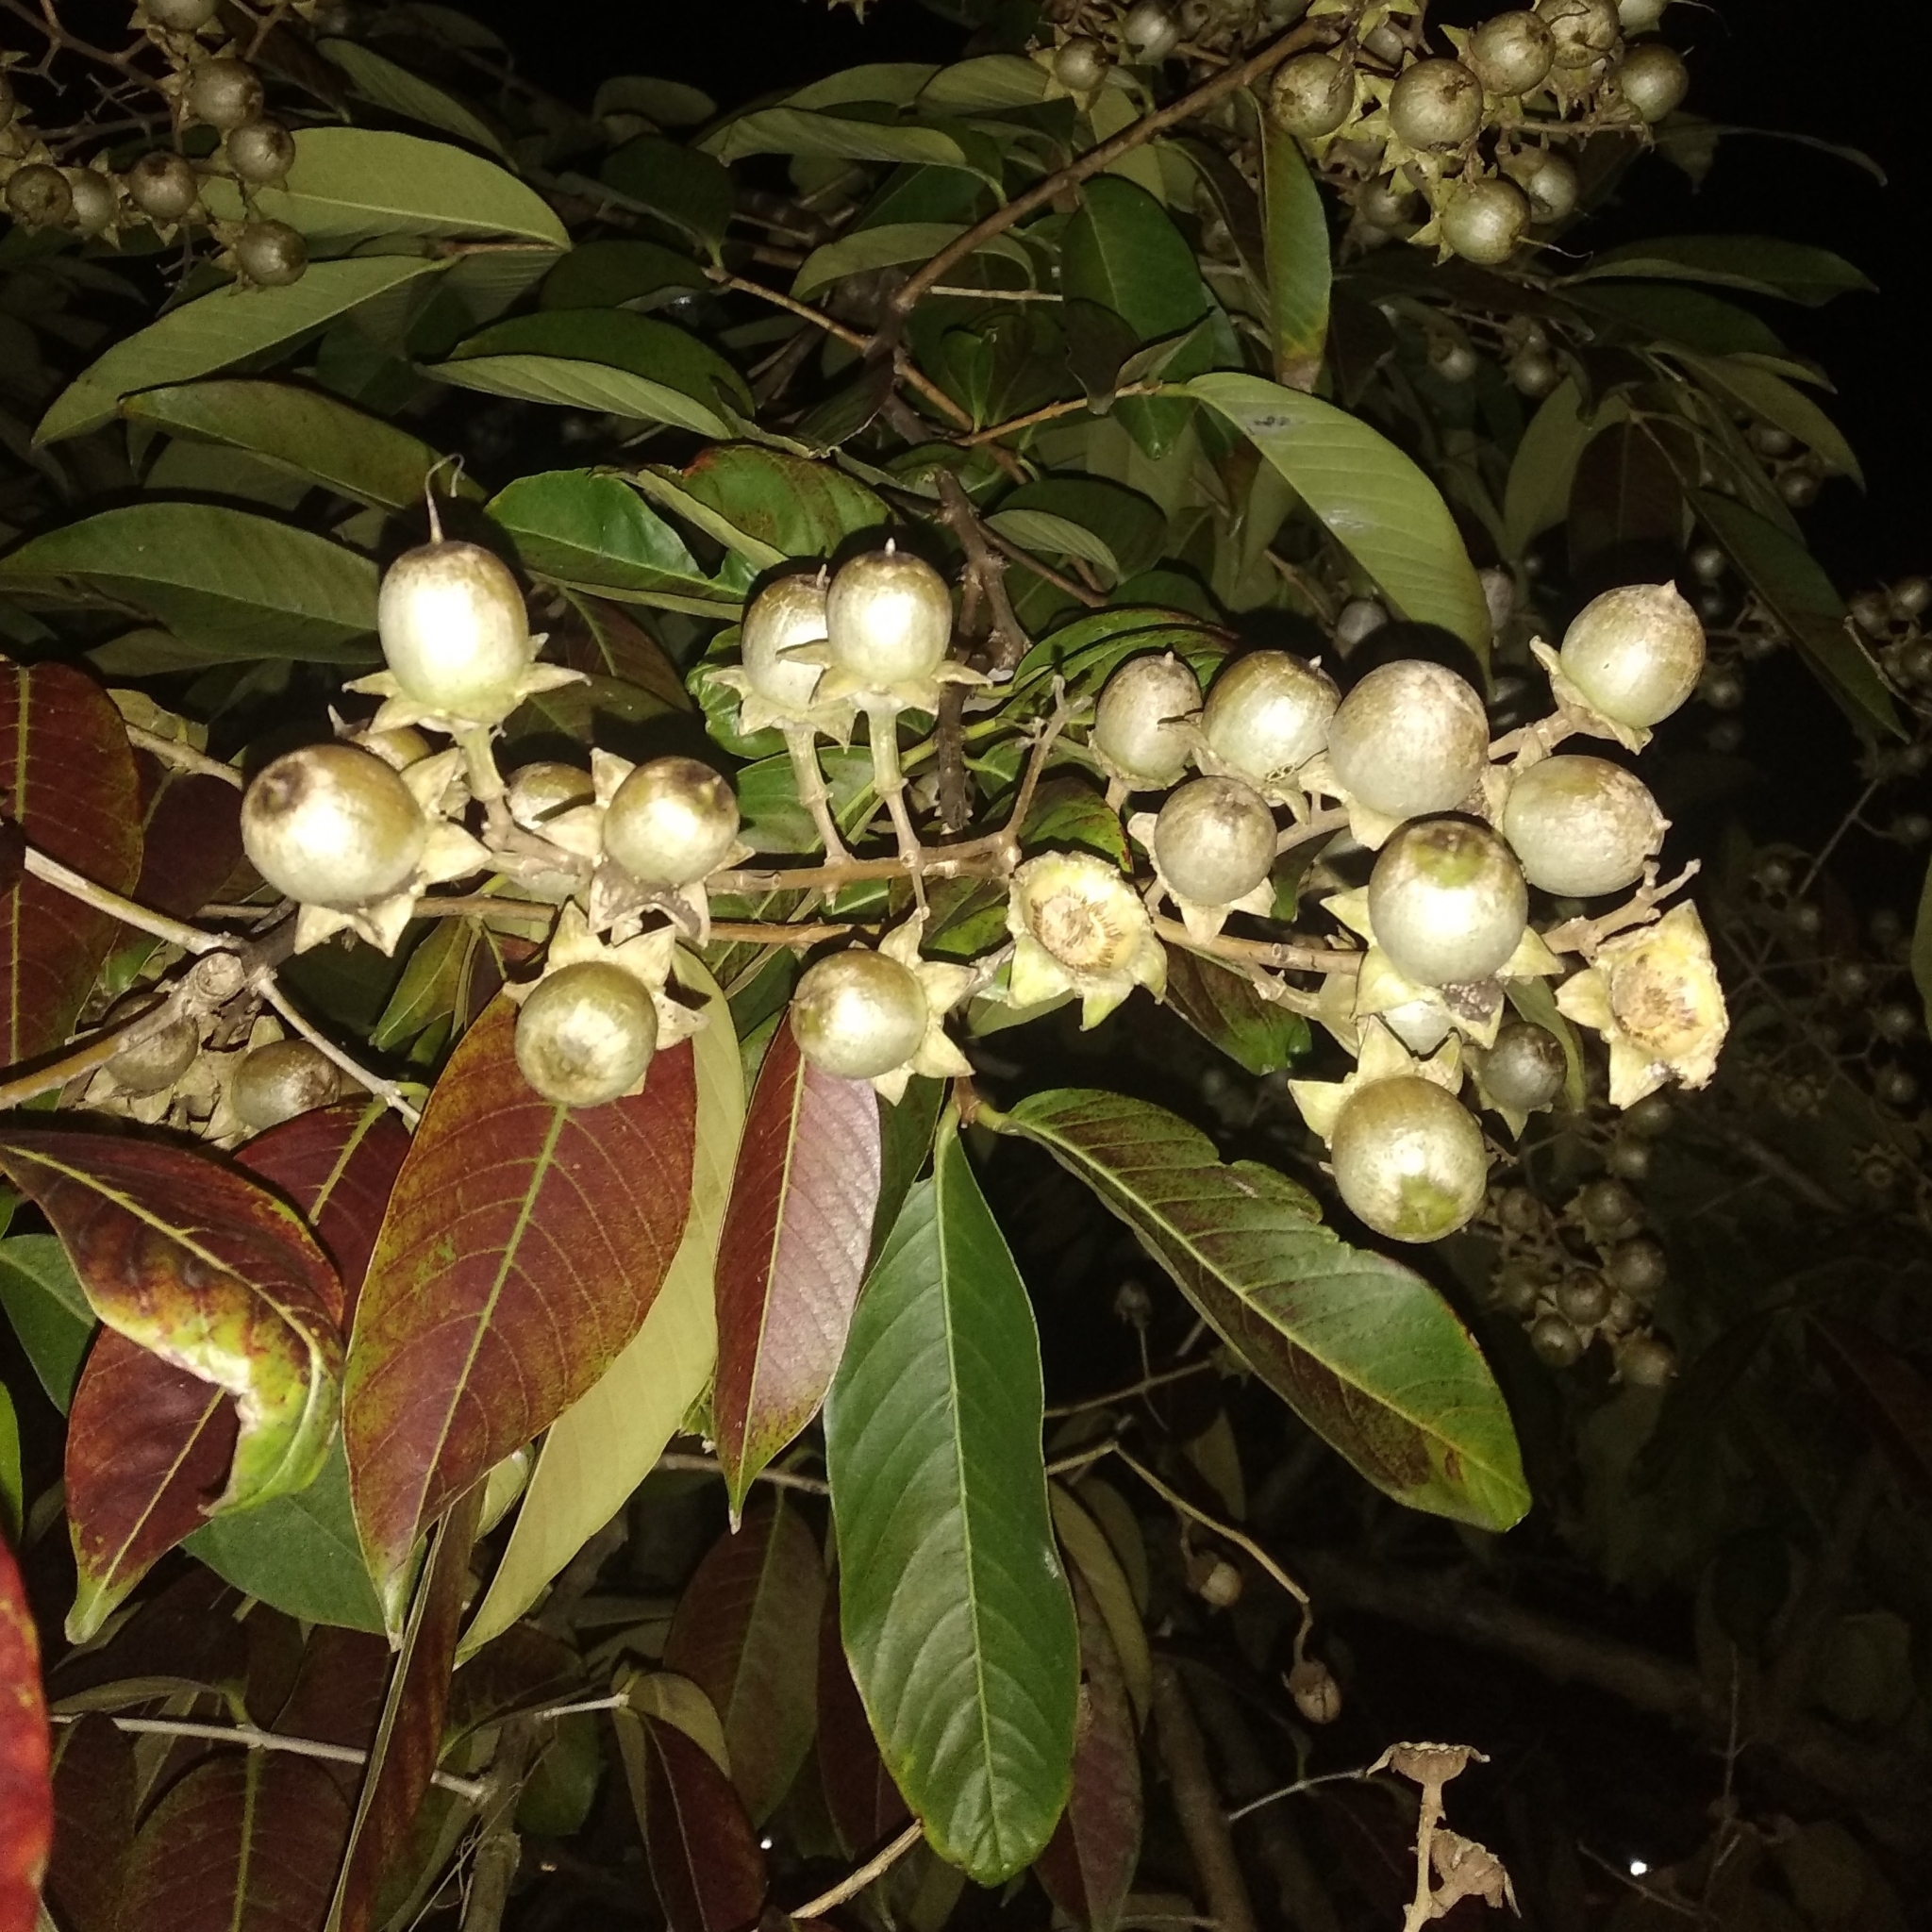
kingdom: Plantae
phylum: Tracheophyta
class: Magnoliopsida
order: Myrtales
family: Lythraceae
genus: Lagerstroemia
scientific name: Lagerstroemia speciosa
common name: Queen's crape-myrtle
